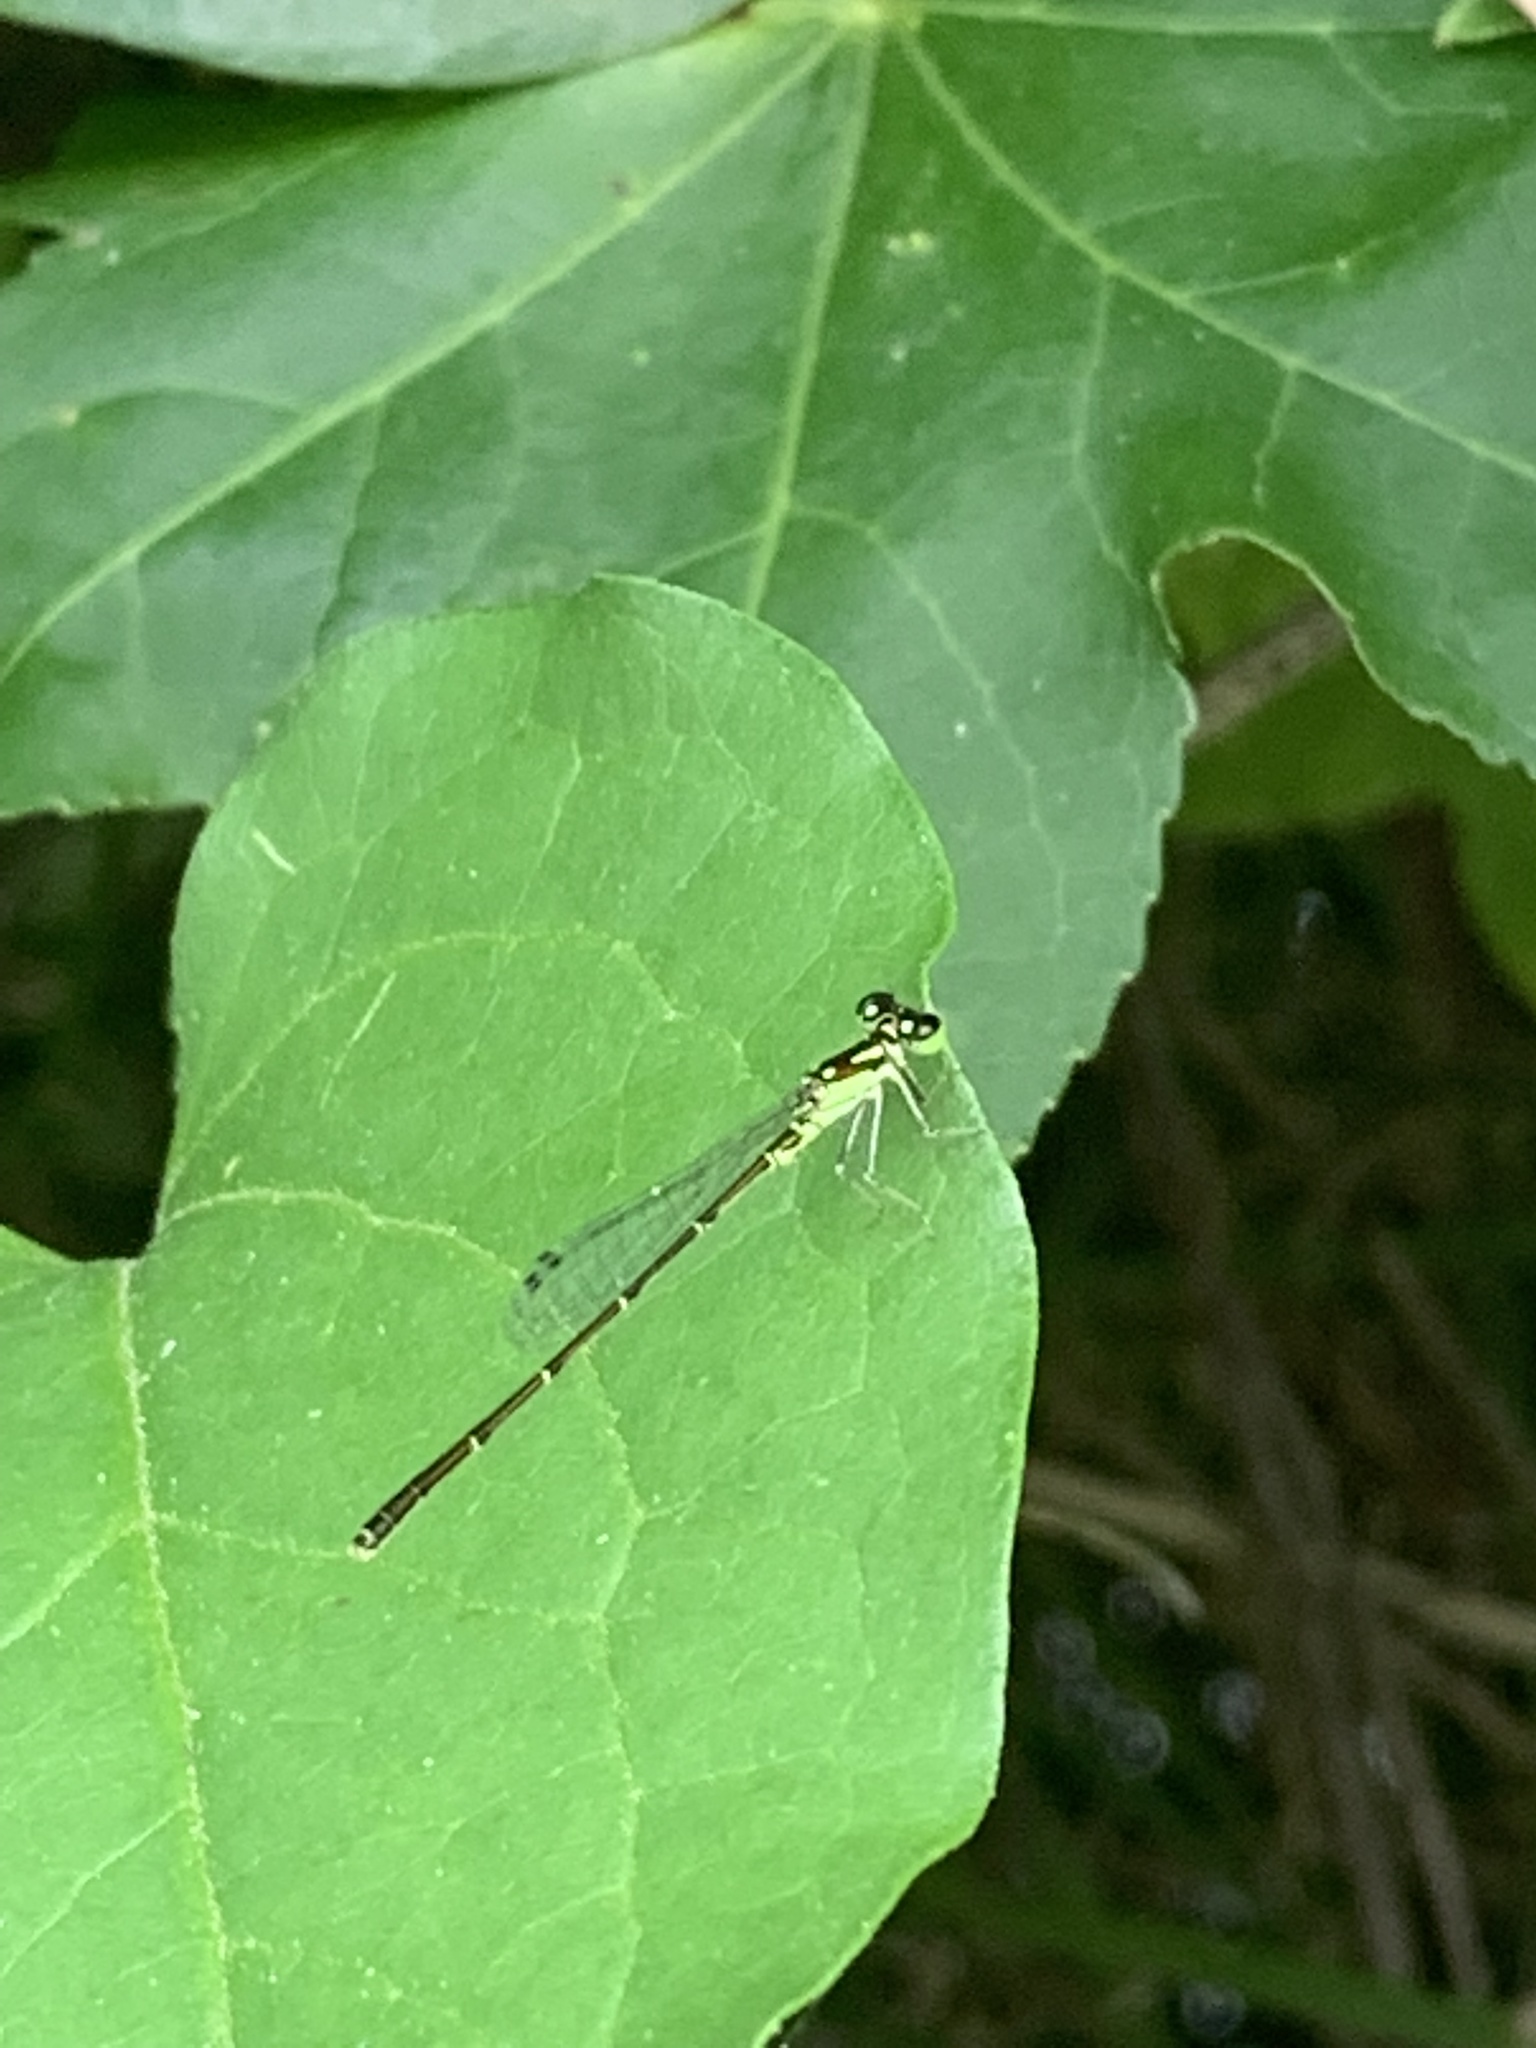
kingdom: Animalia
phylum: Arthropoda
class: Insecta
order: Odonata
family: Coenagrionidae
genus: Ischnura
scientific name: Ischnura posita
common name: Fragile forktail
